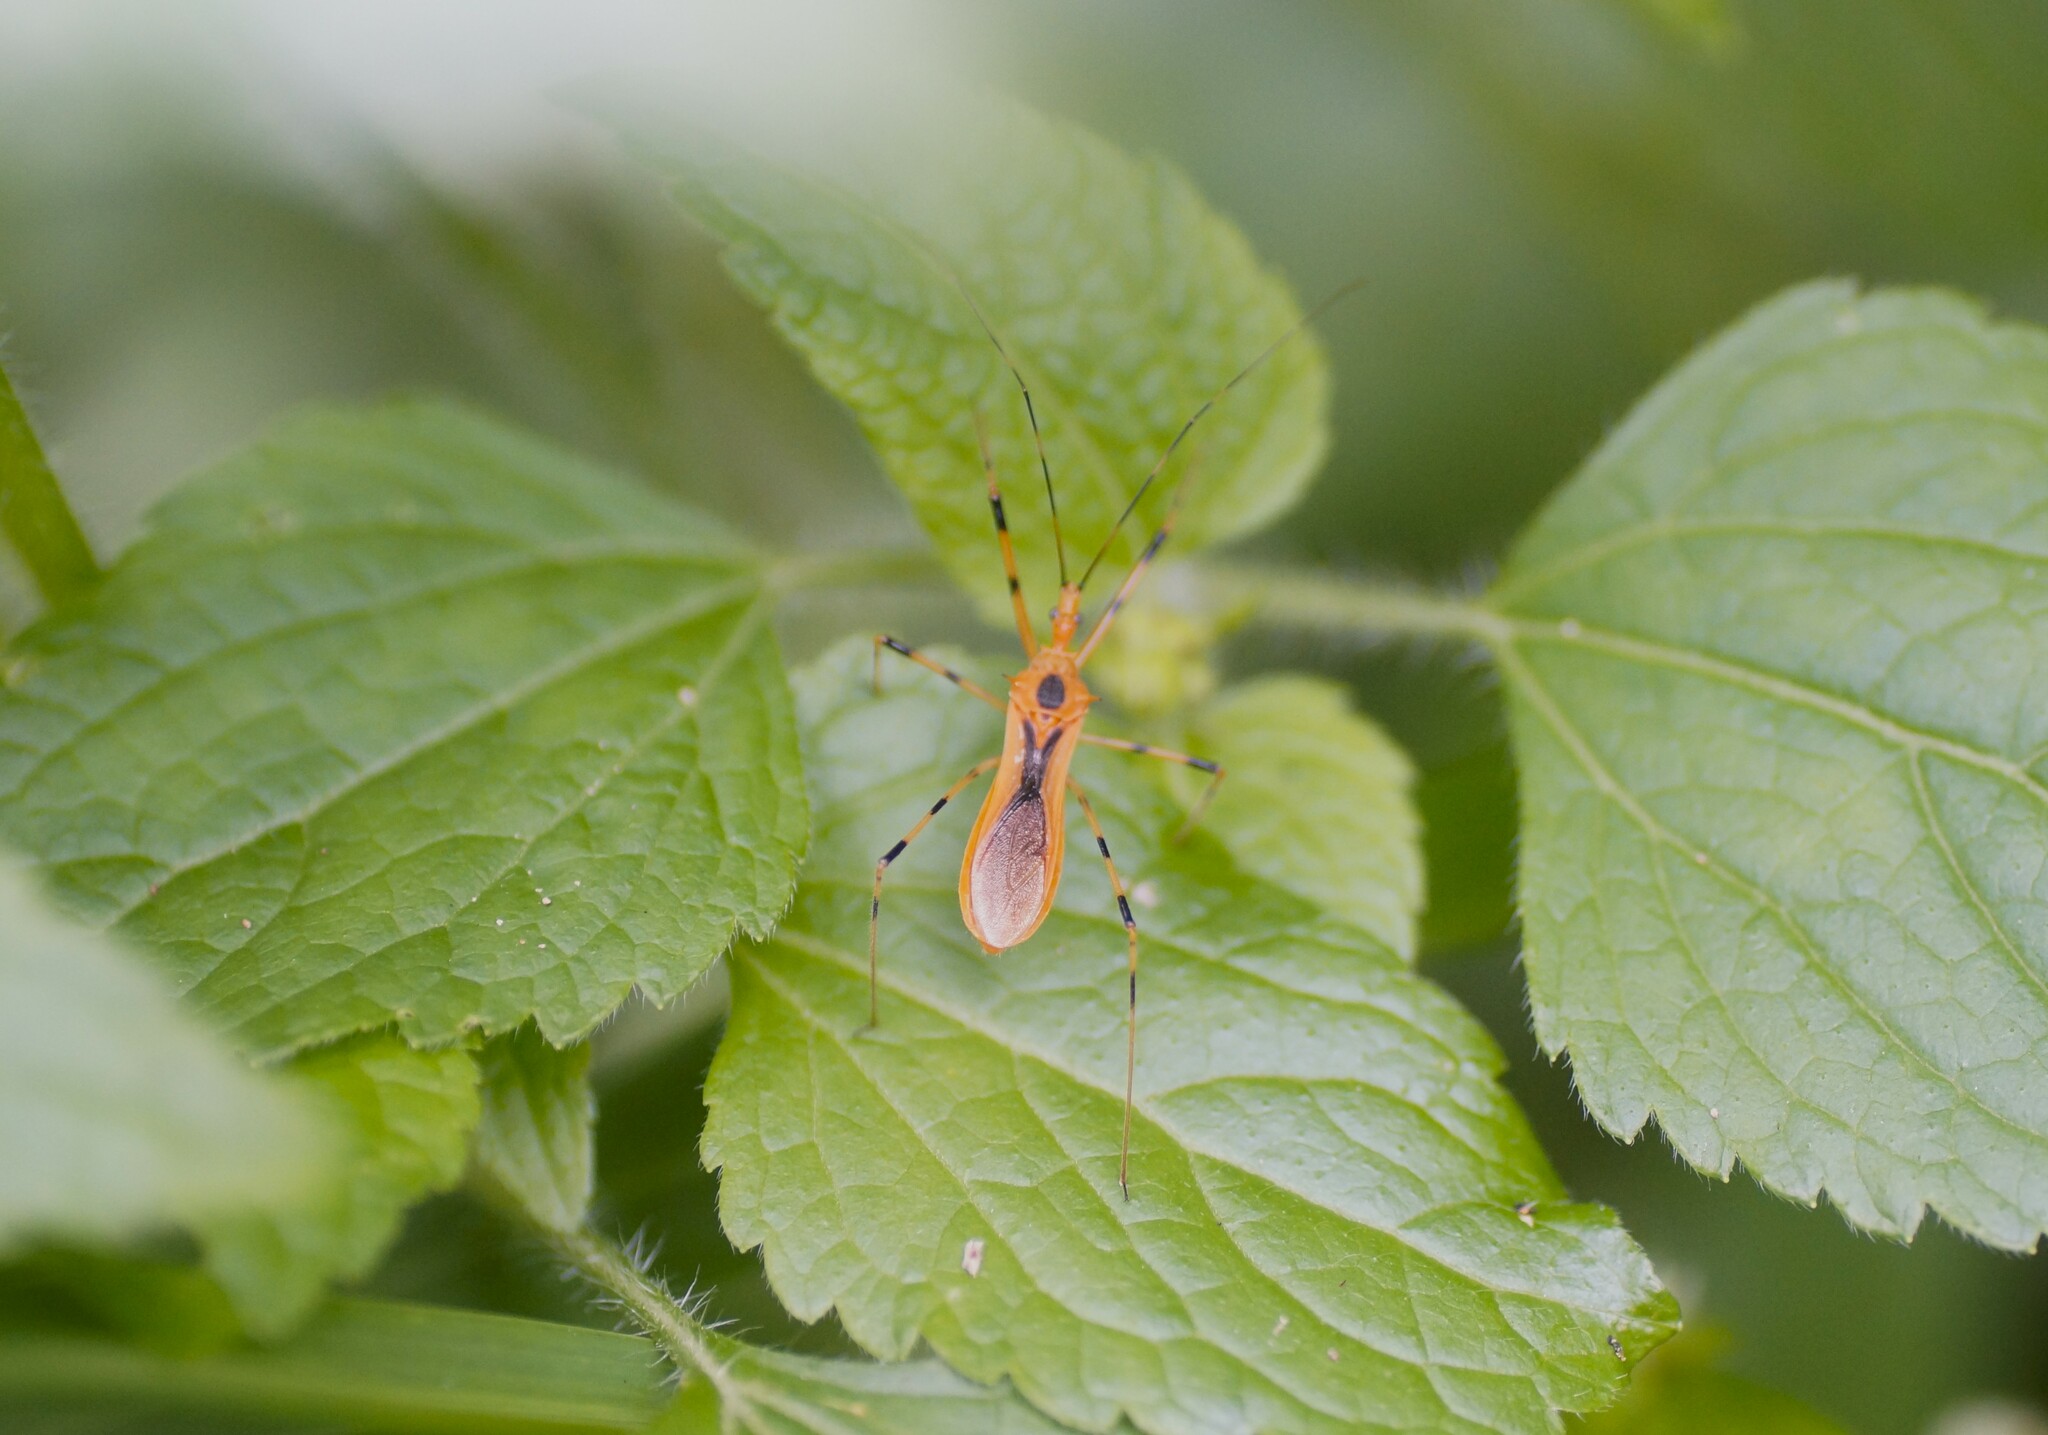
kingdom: Animalia
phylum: Arthropoda
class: Insecta
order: Hemiptera
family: Reduviidae
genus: Euagoras
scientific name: Euagoras dorycus
